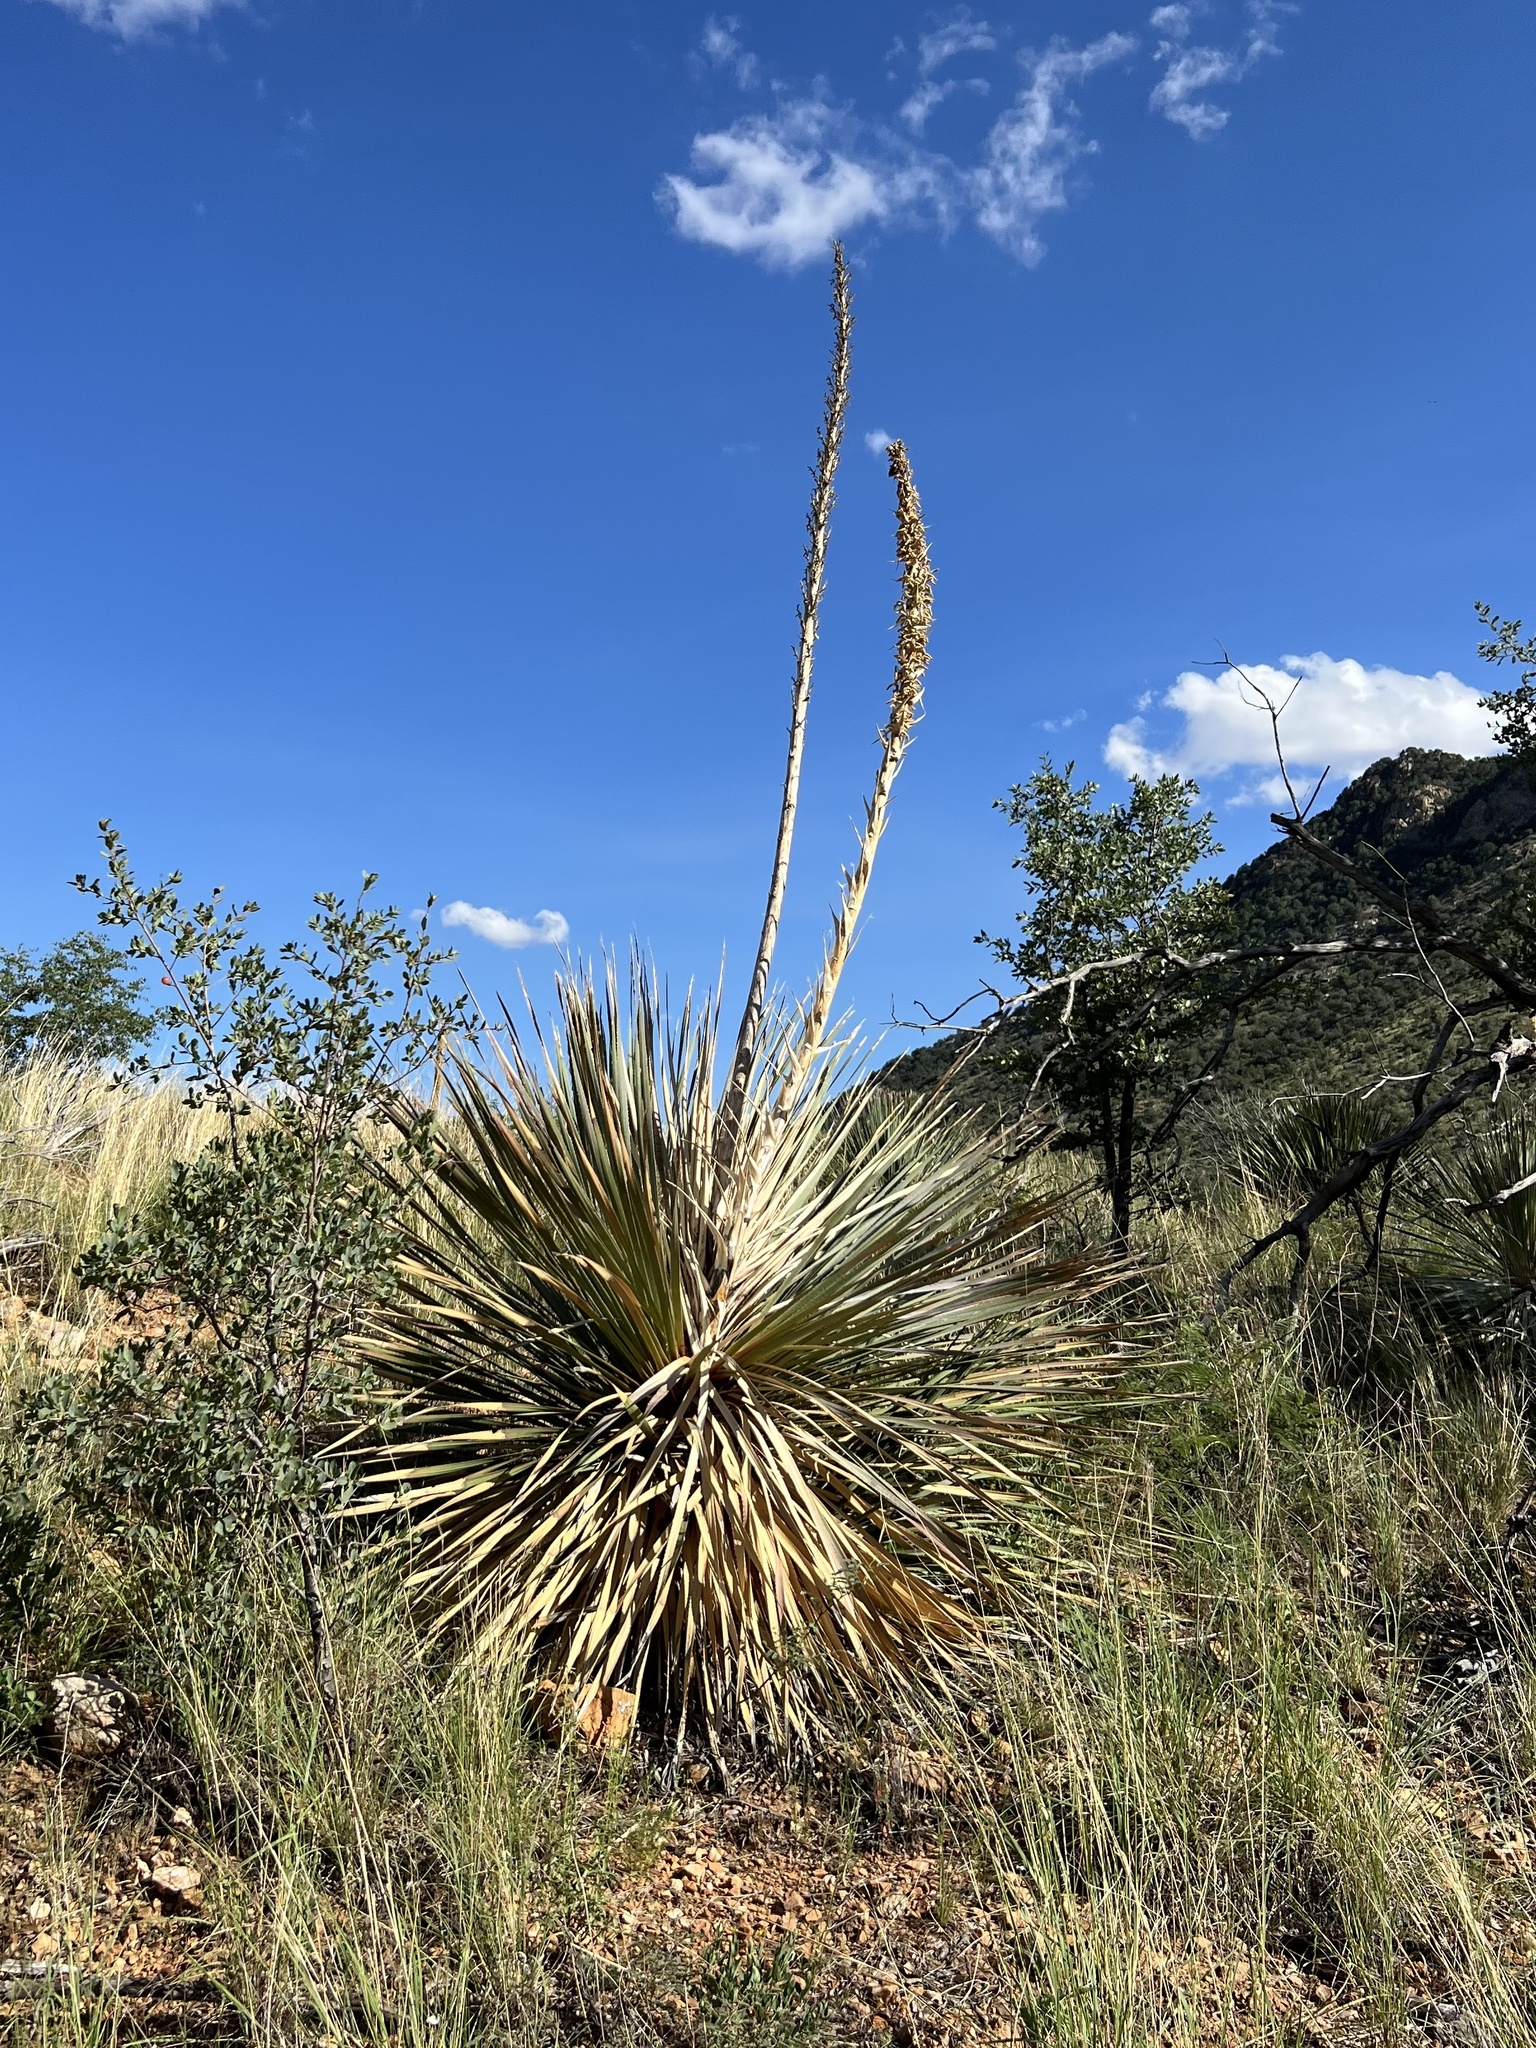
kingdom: Plantae
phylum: Tracheophyta
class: Liliopsida
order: Asparagales
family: Asparagaceae
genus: Dasylirion
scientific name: Dasylirion wheeleri
